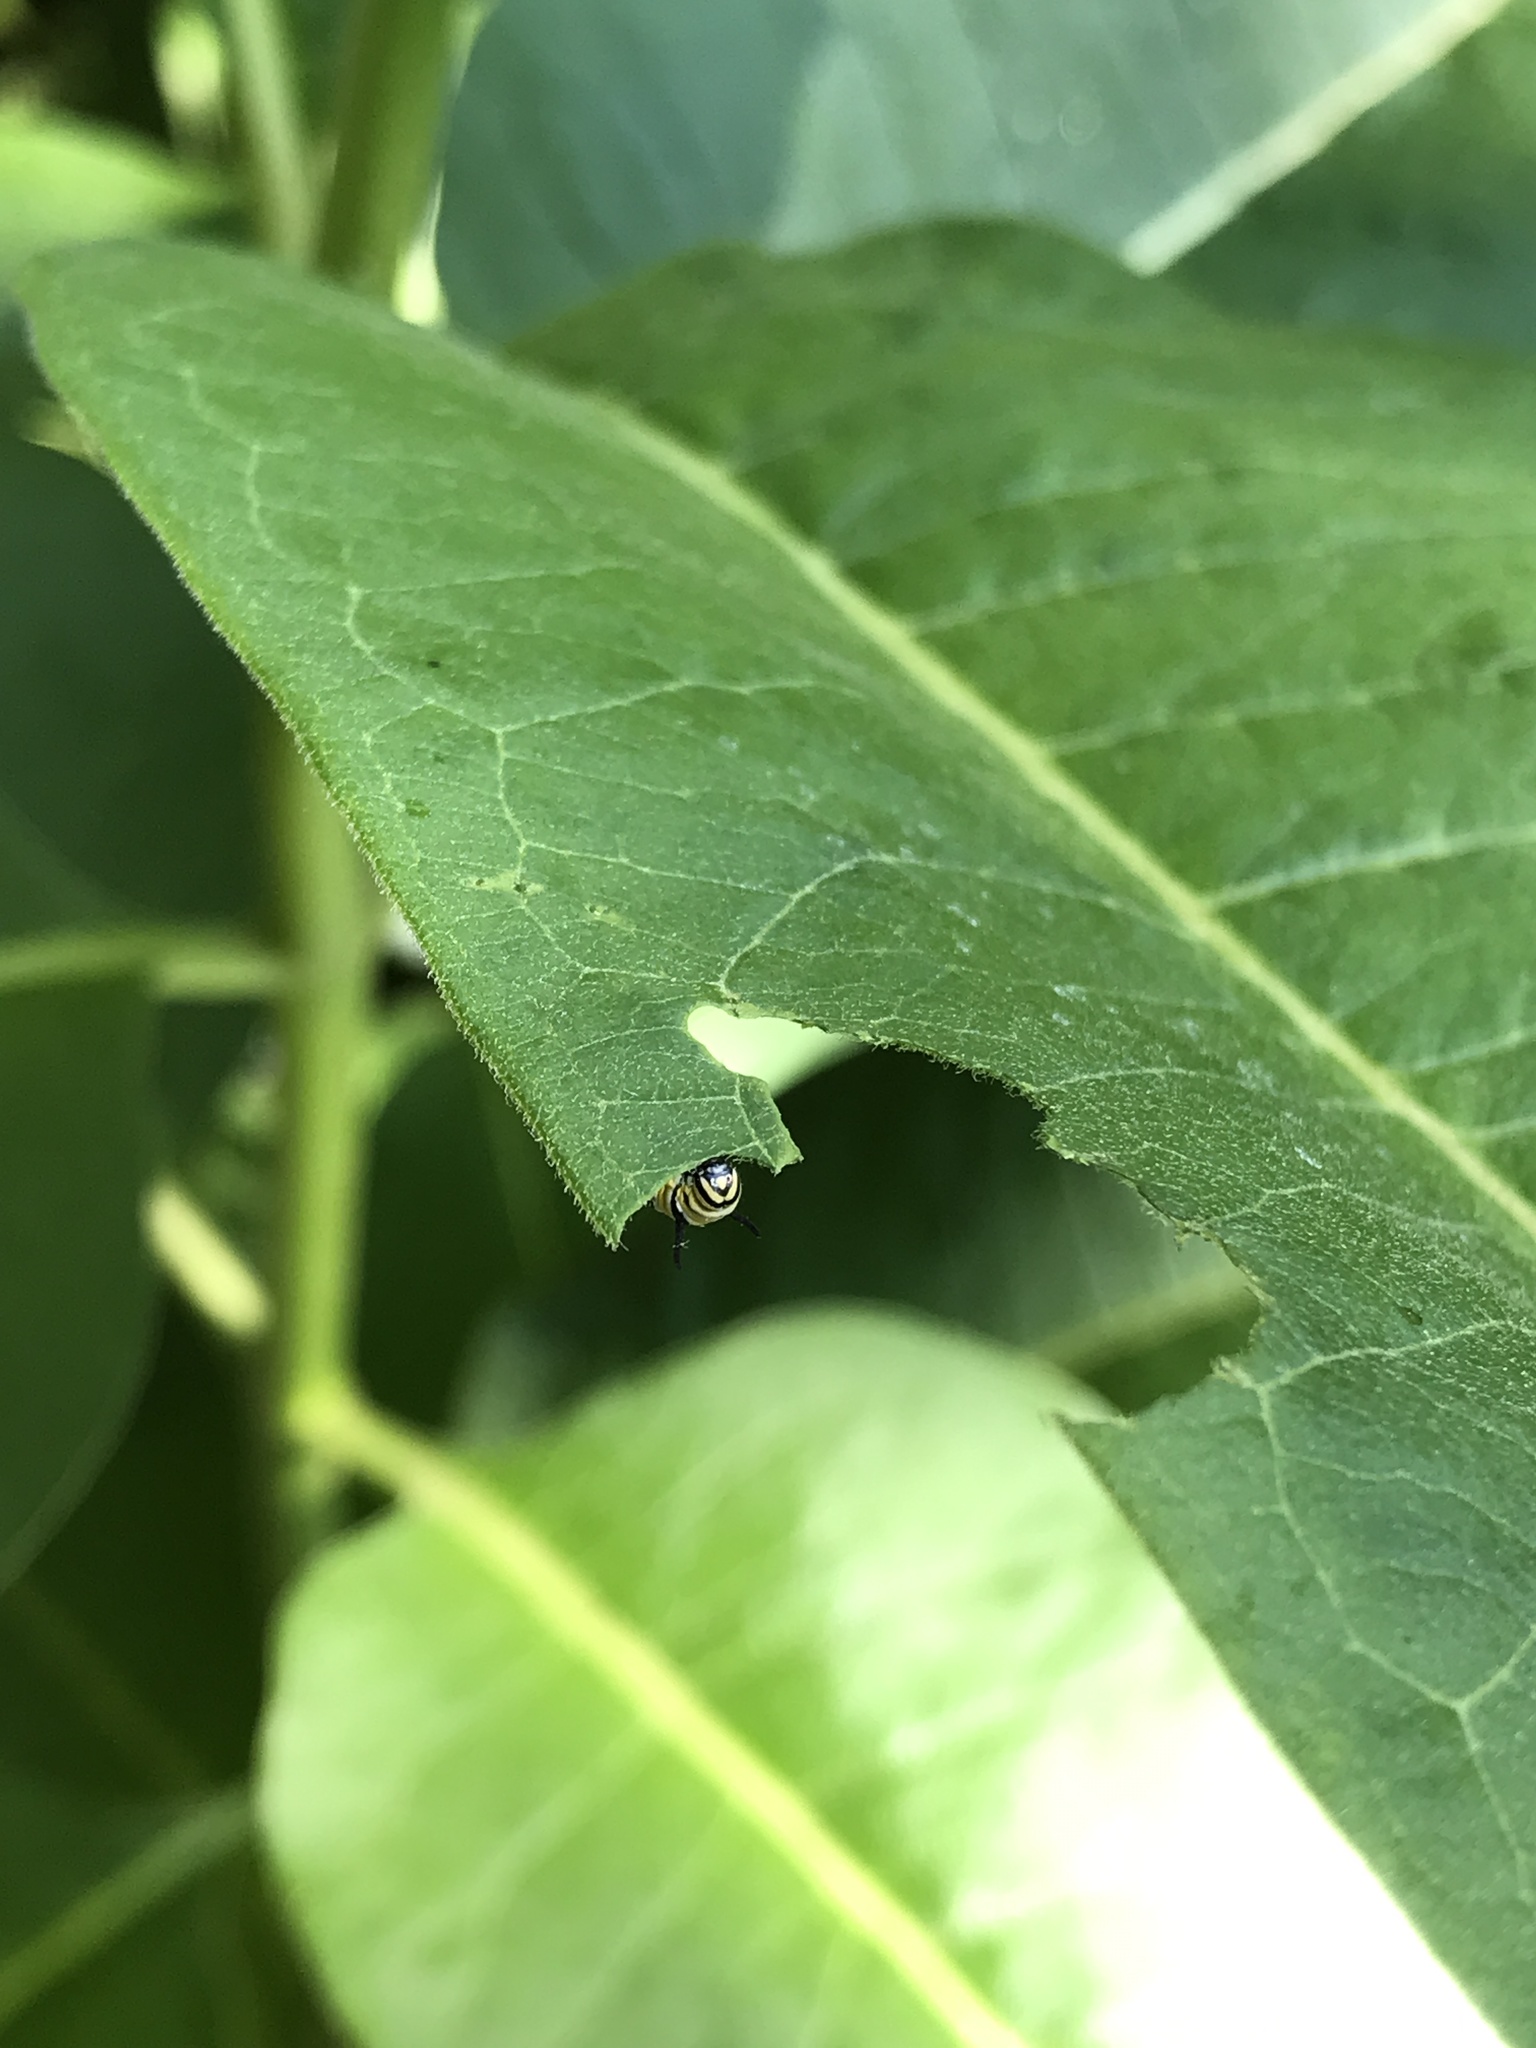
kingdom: Animalia
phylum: Arthropoda
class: Insecta
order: Lepidoptera
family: Nymphalidae
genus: Danaus
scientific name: Danaus plexippus
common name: Monarch
